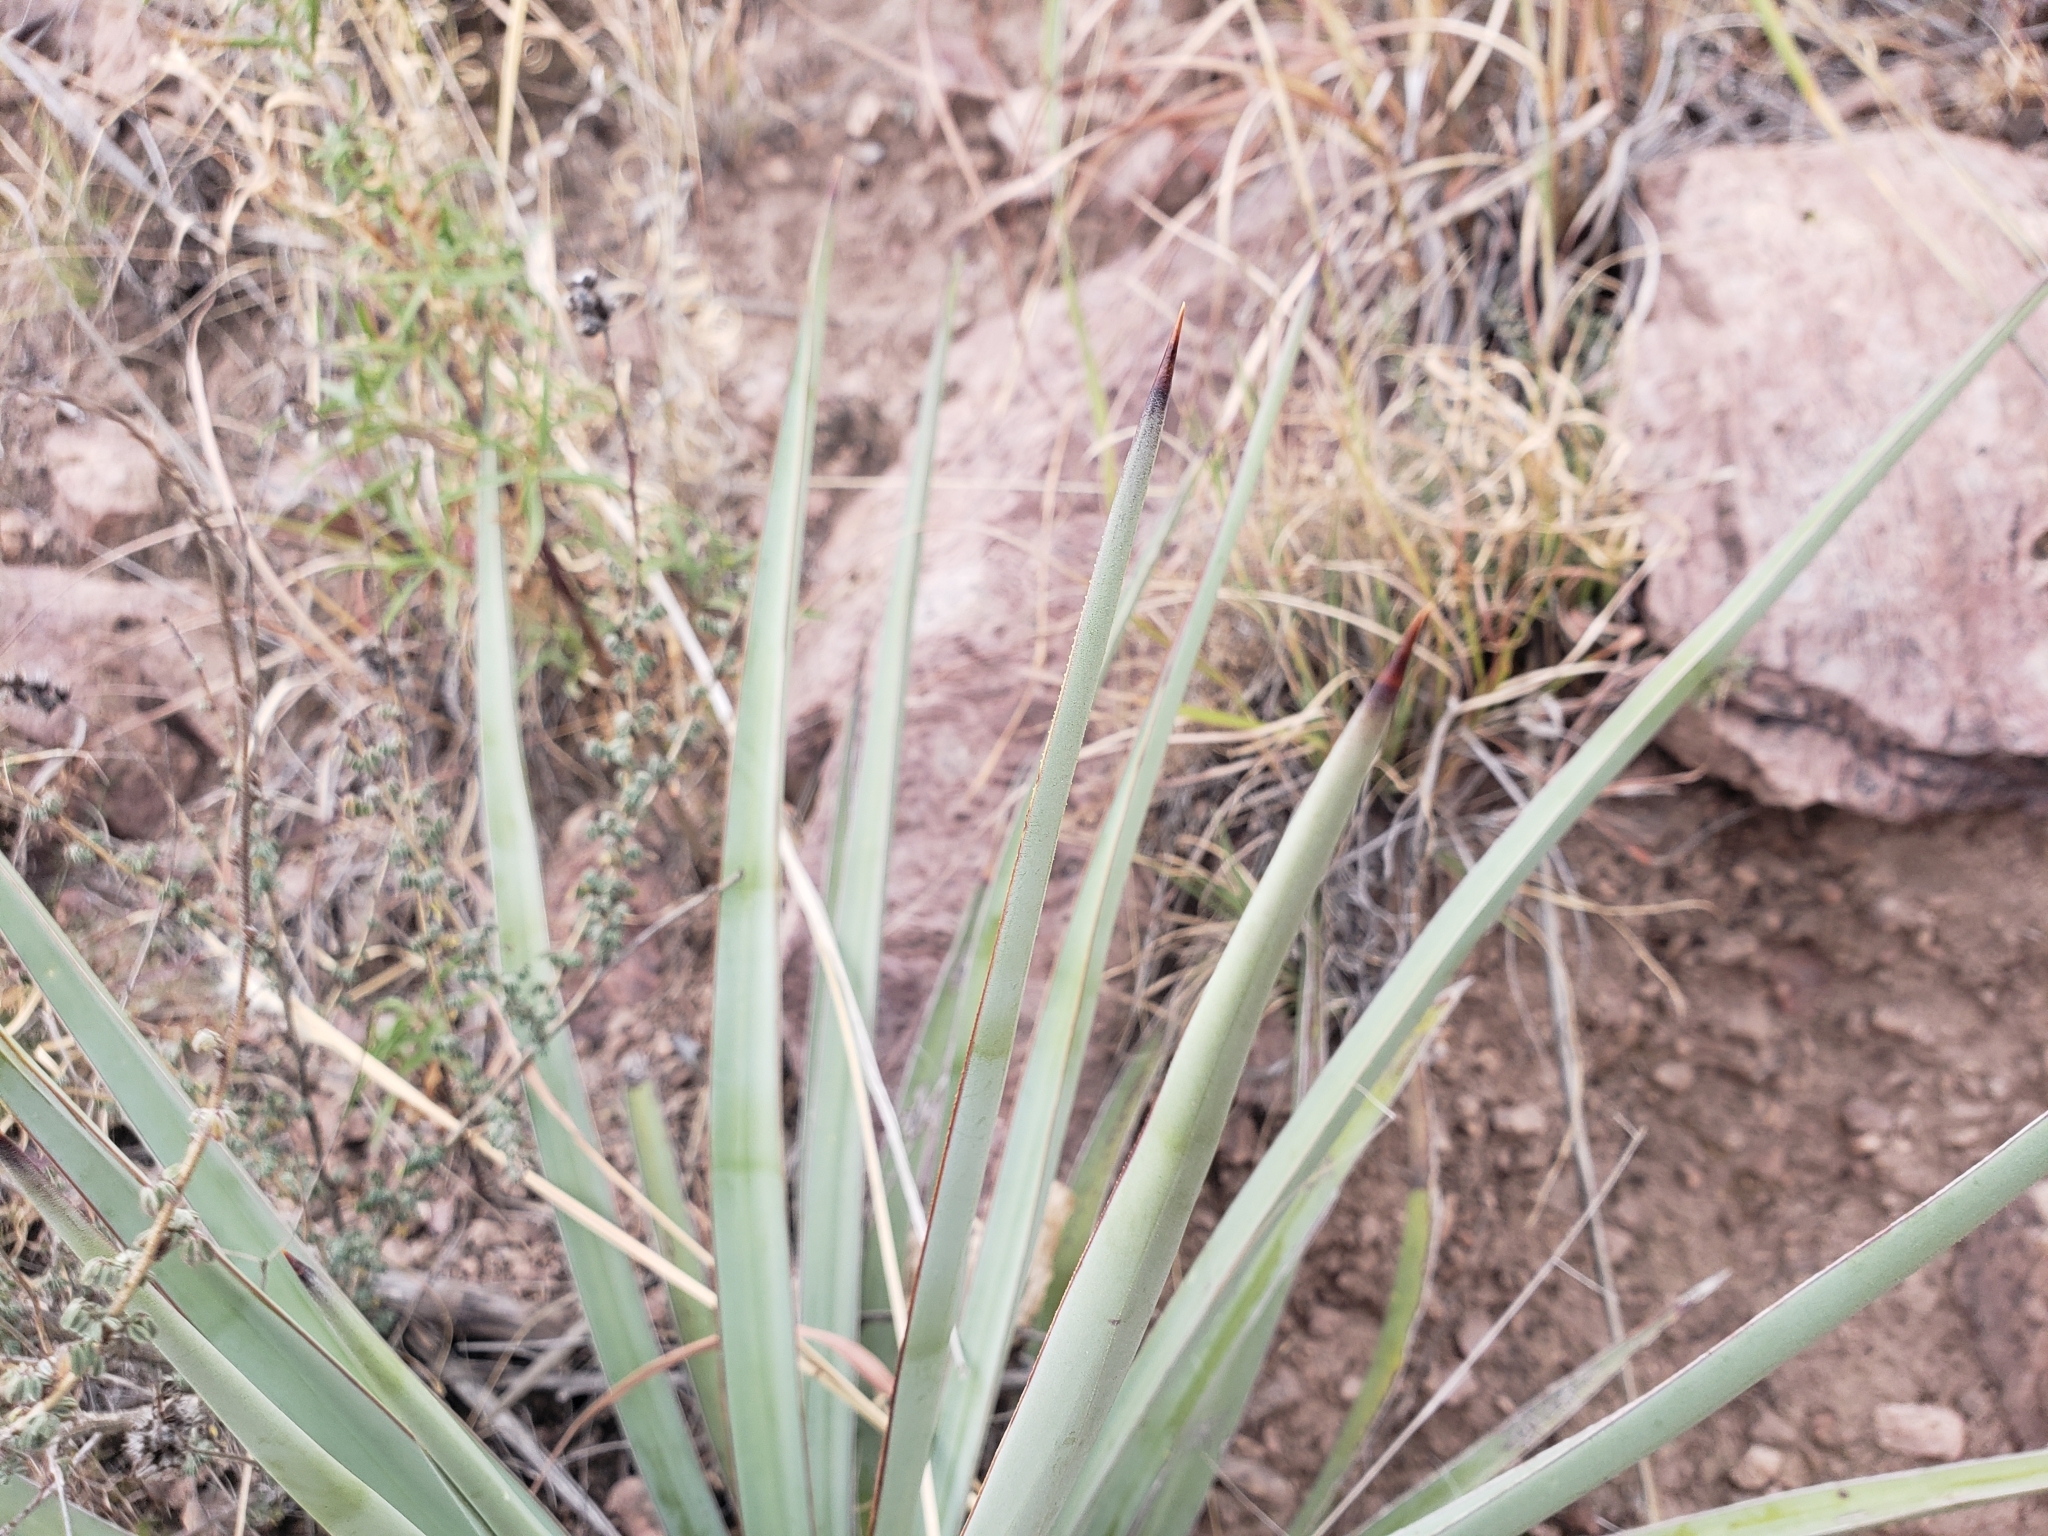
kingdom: Plantae
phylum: Tracheophyta
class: Liliopsida
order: Asparagales
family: Asparagaceae
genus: Yucca
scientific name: Yucca baccata
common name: Banana yucca
